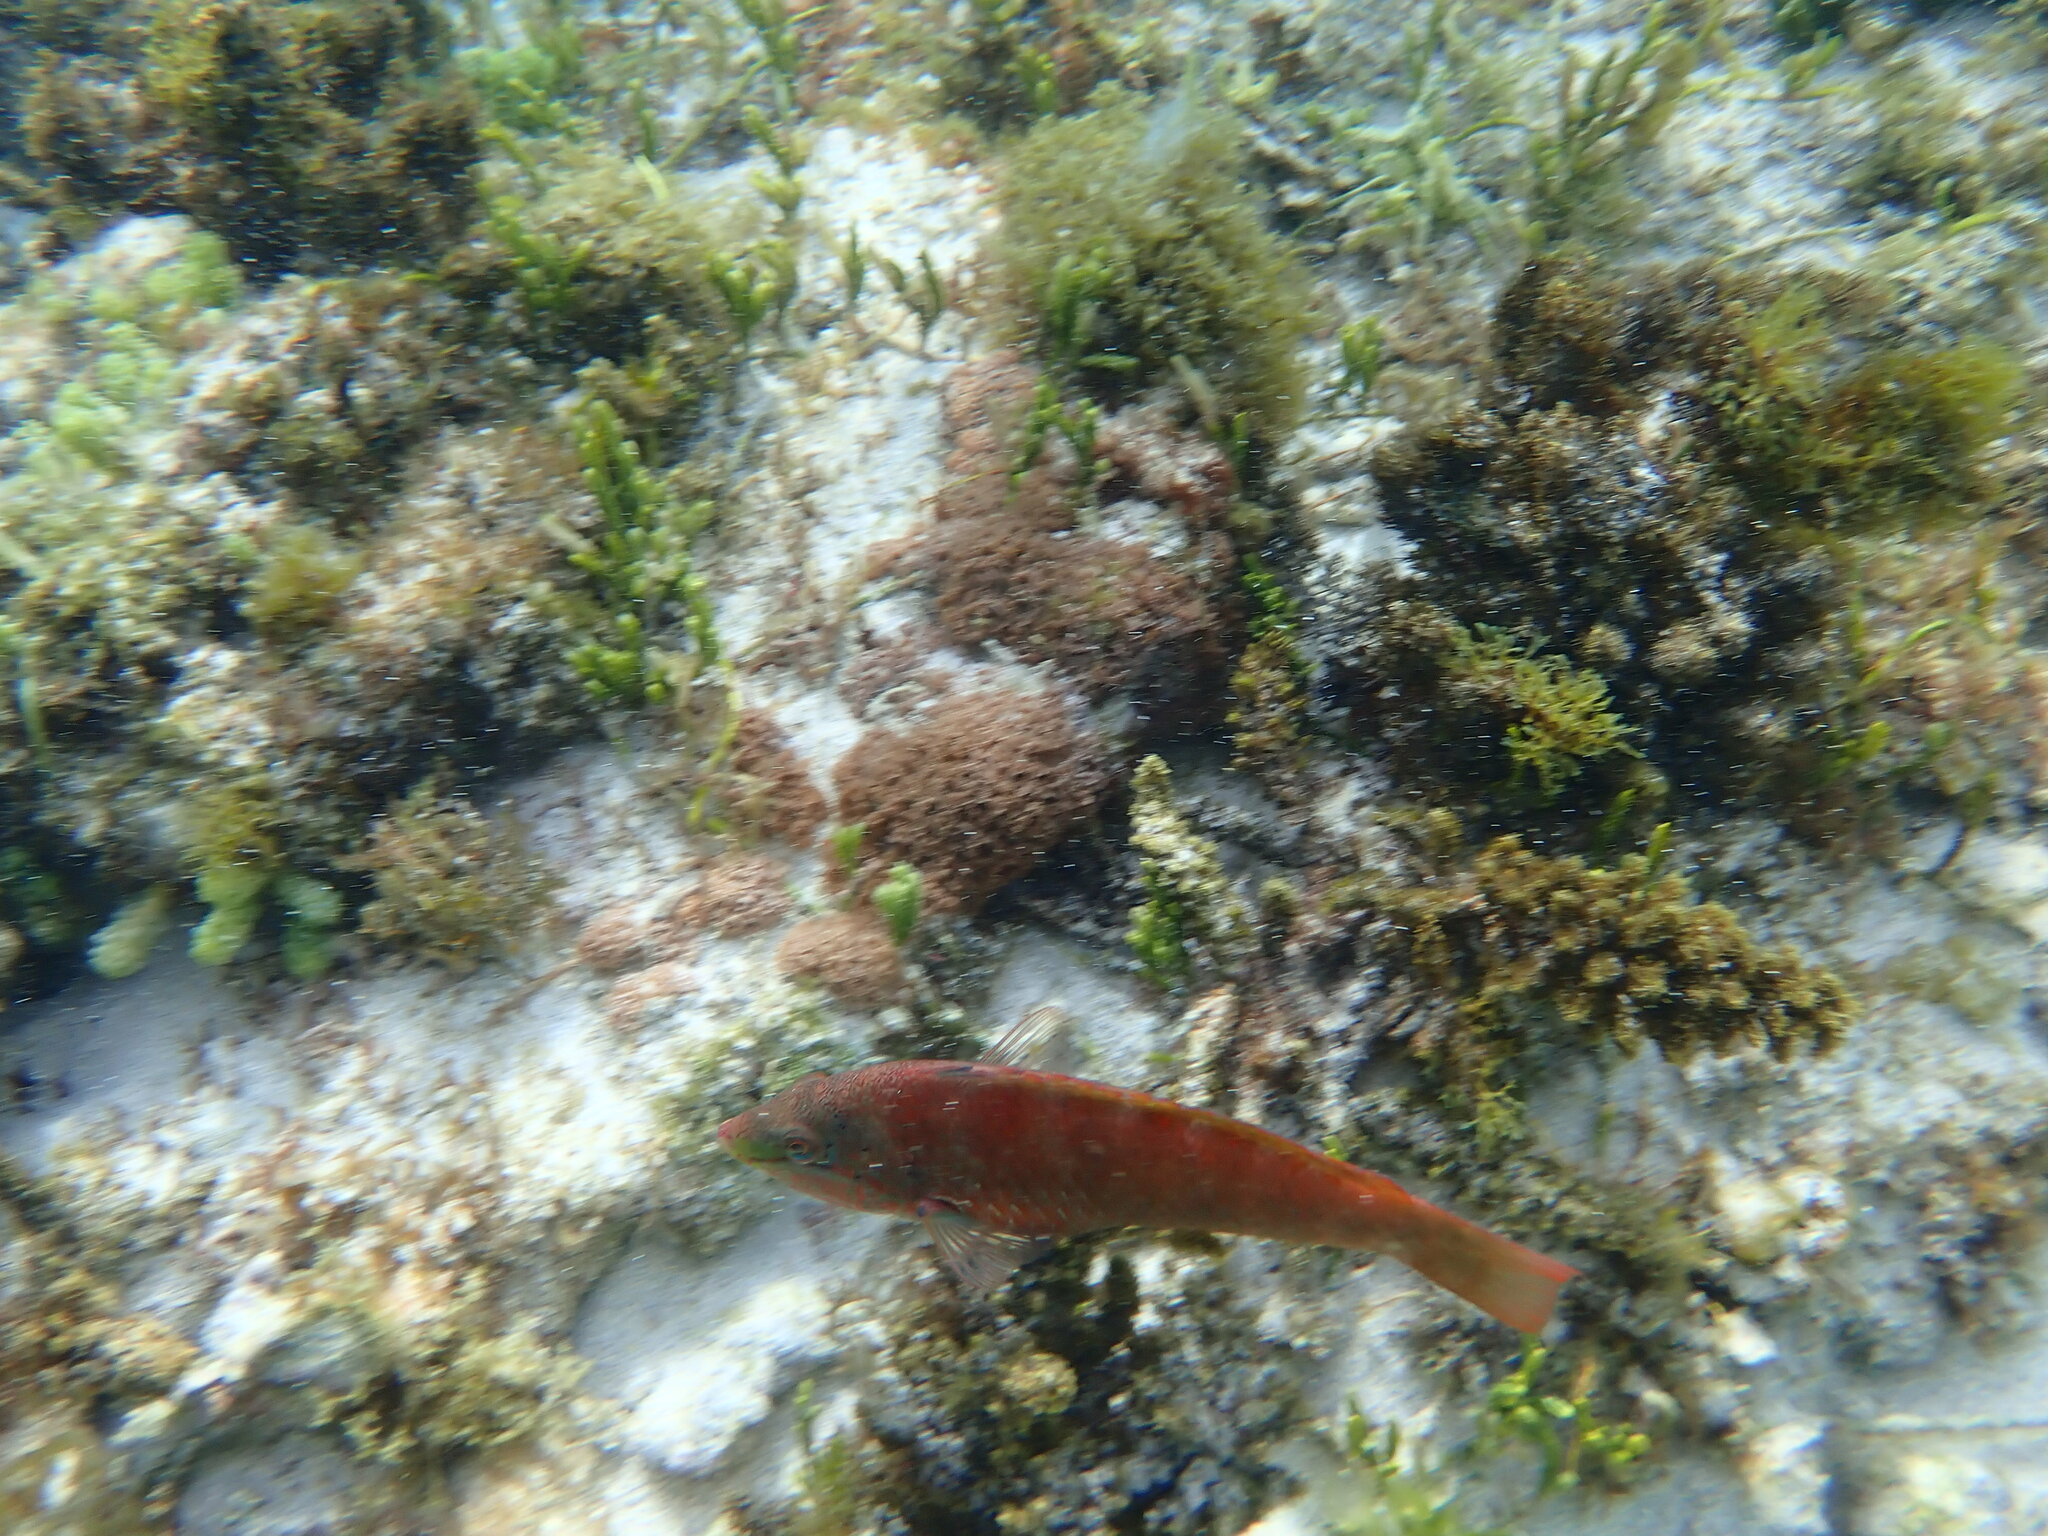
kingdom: Animalia
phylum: Chordata
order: Perciformes
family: Labridae
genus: Pseudolabrus
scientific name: Pseudolabrus luculentus
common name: Luculentus wrasse
